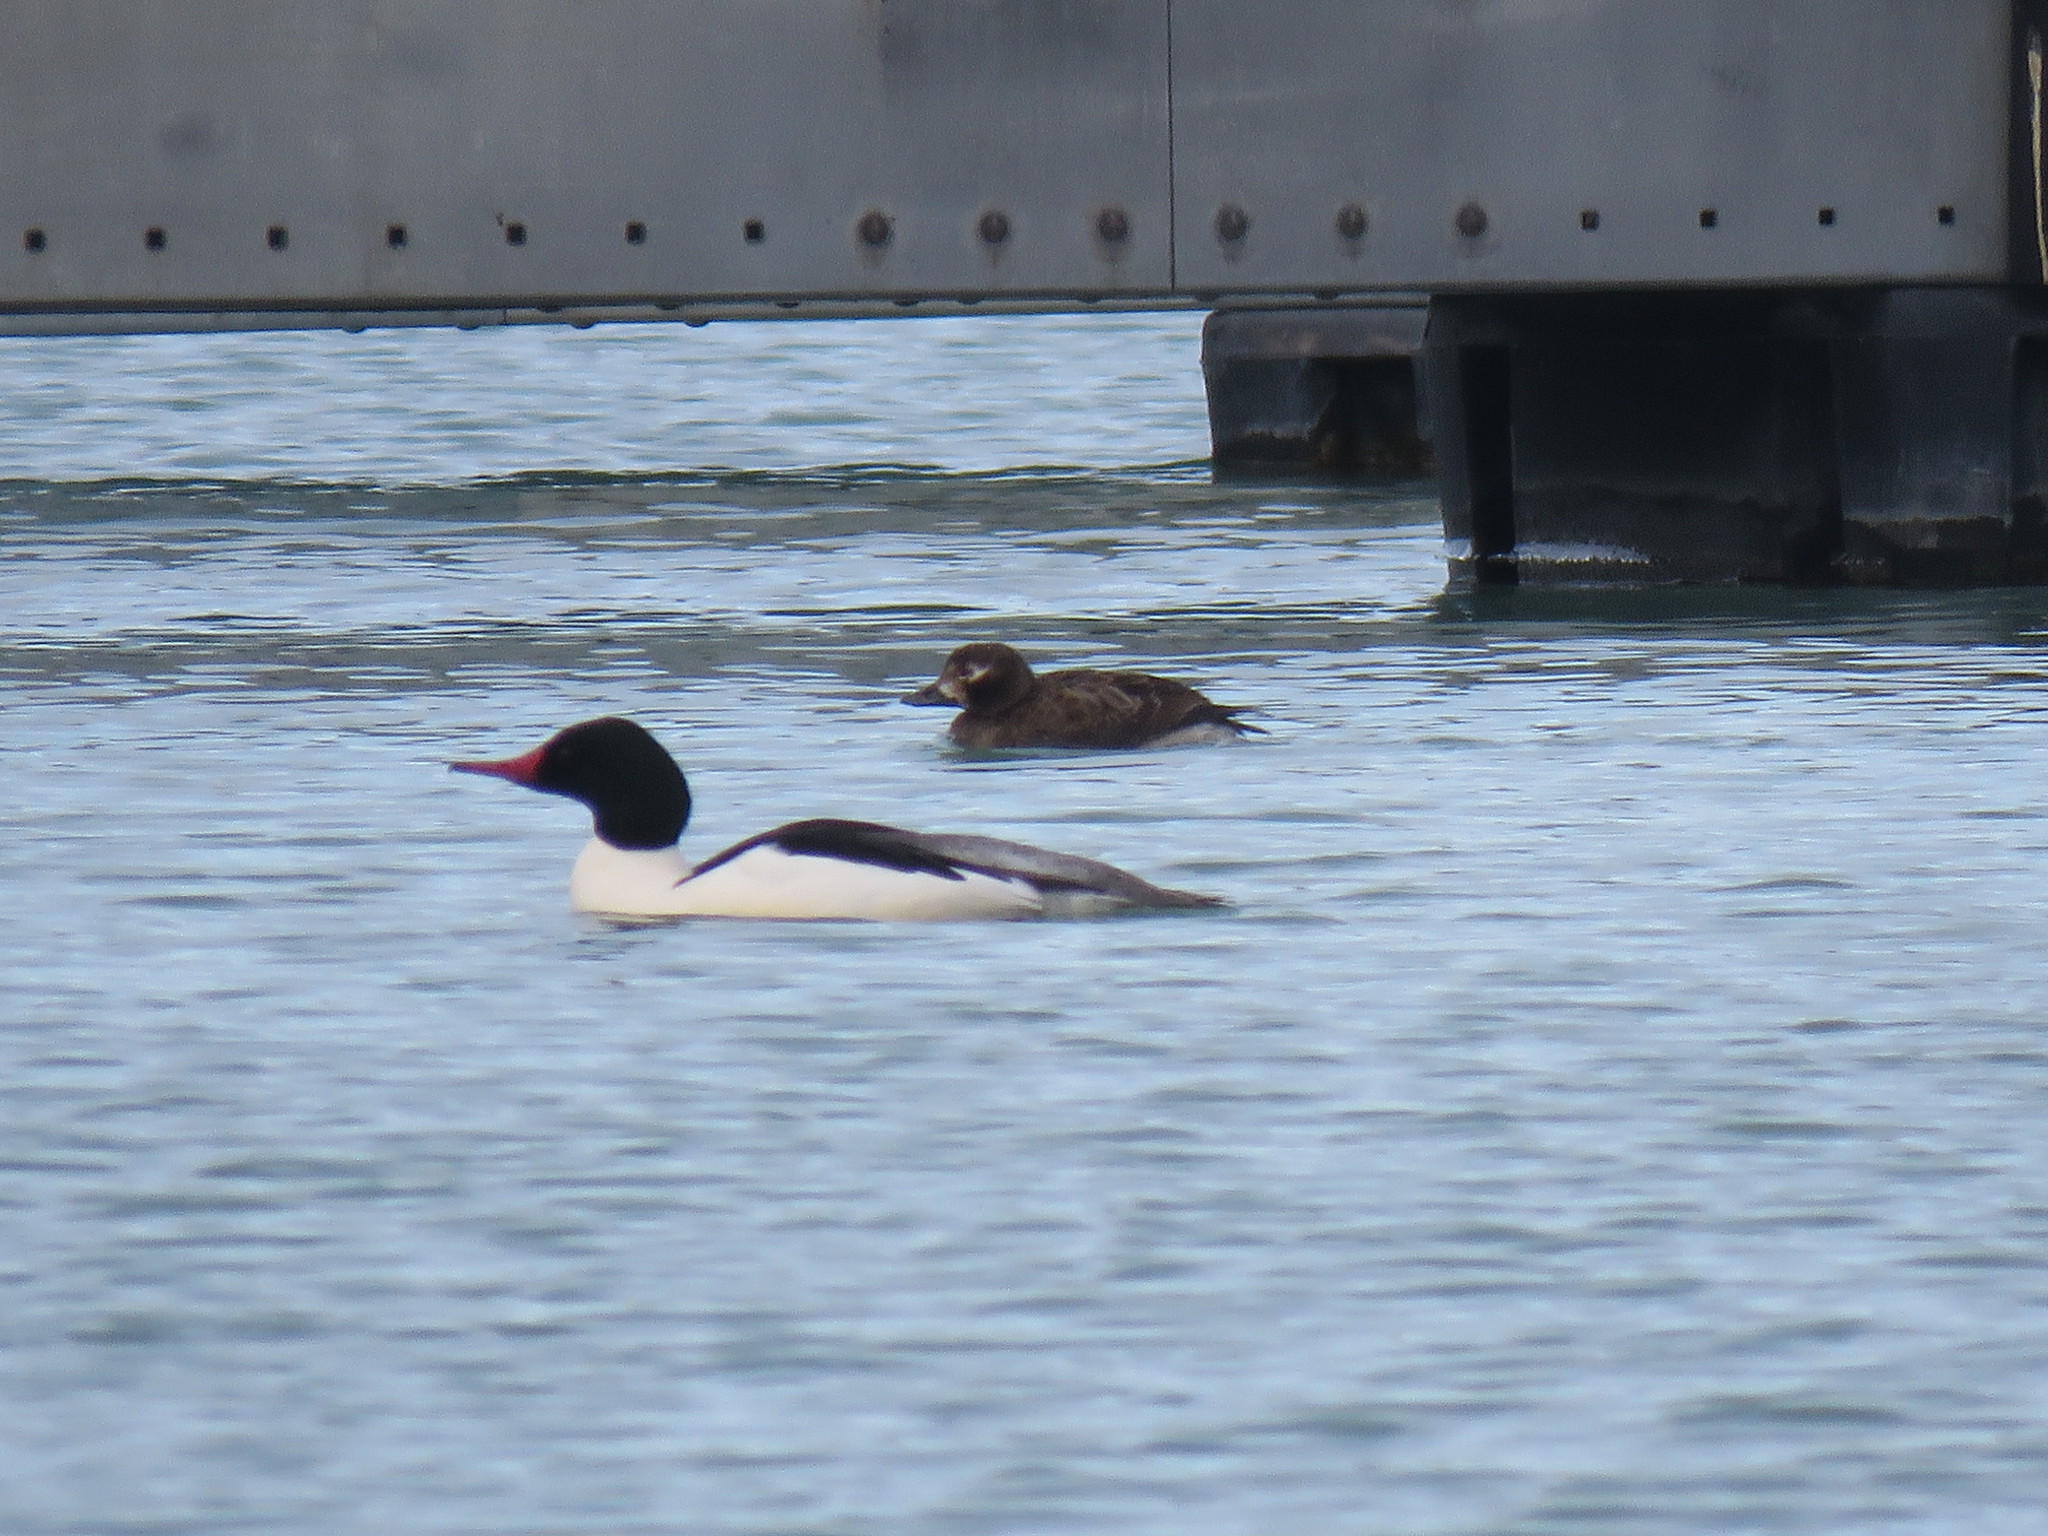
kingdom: Animalia
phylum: Chordata
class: Aves
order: Anseriformes
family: Anatidae
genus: Clangula
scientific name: Clangula hyemalis
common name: Long-tailed duck
